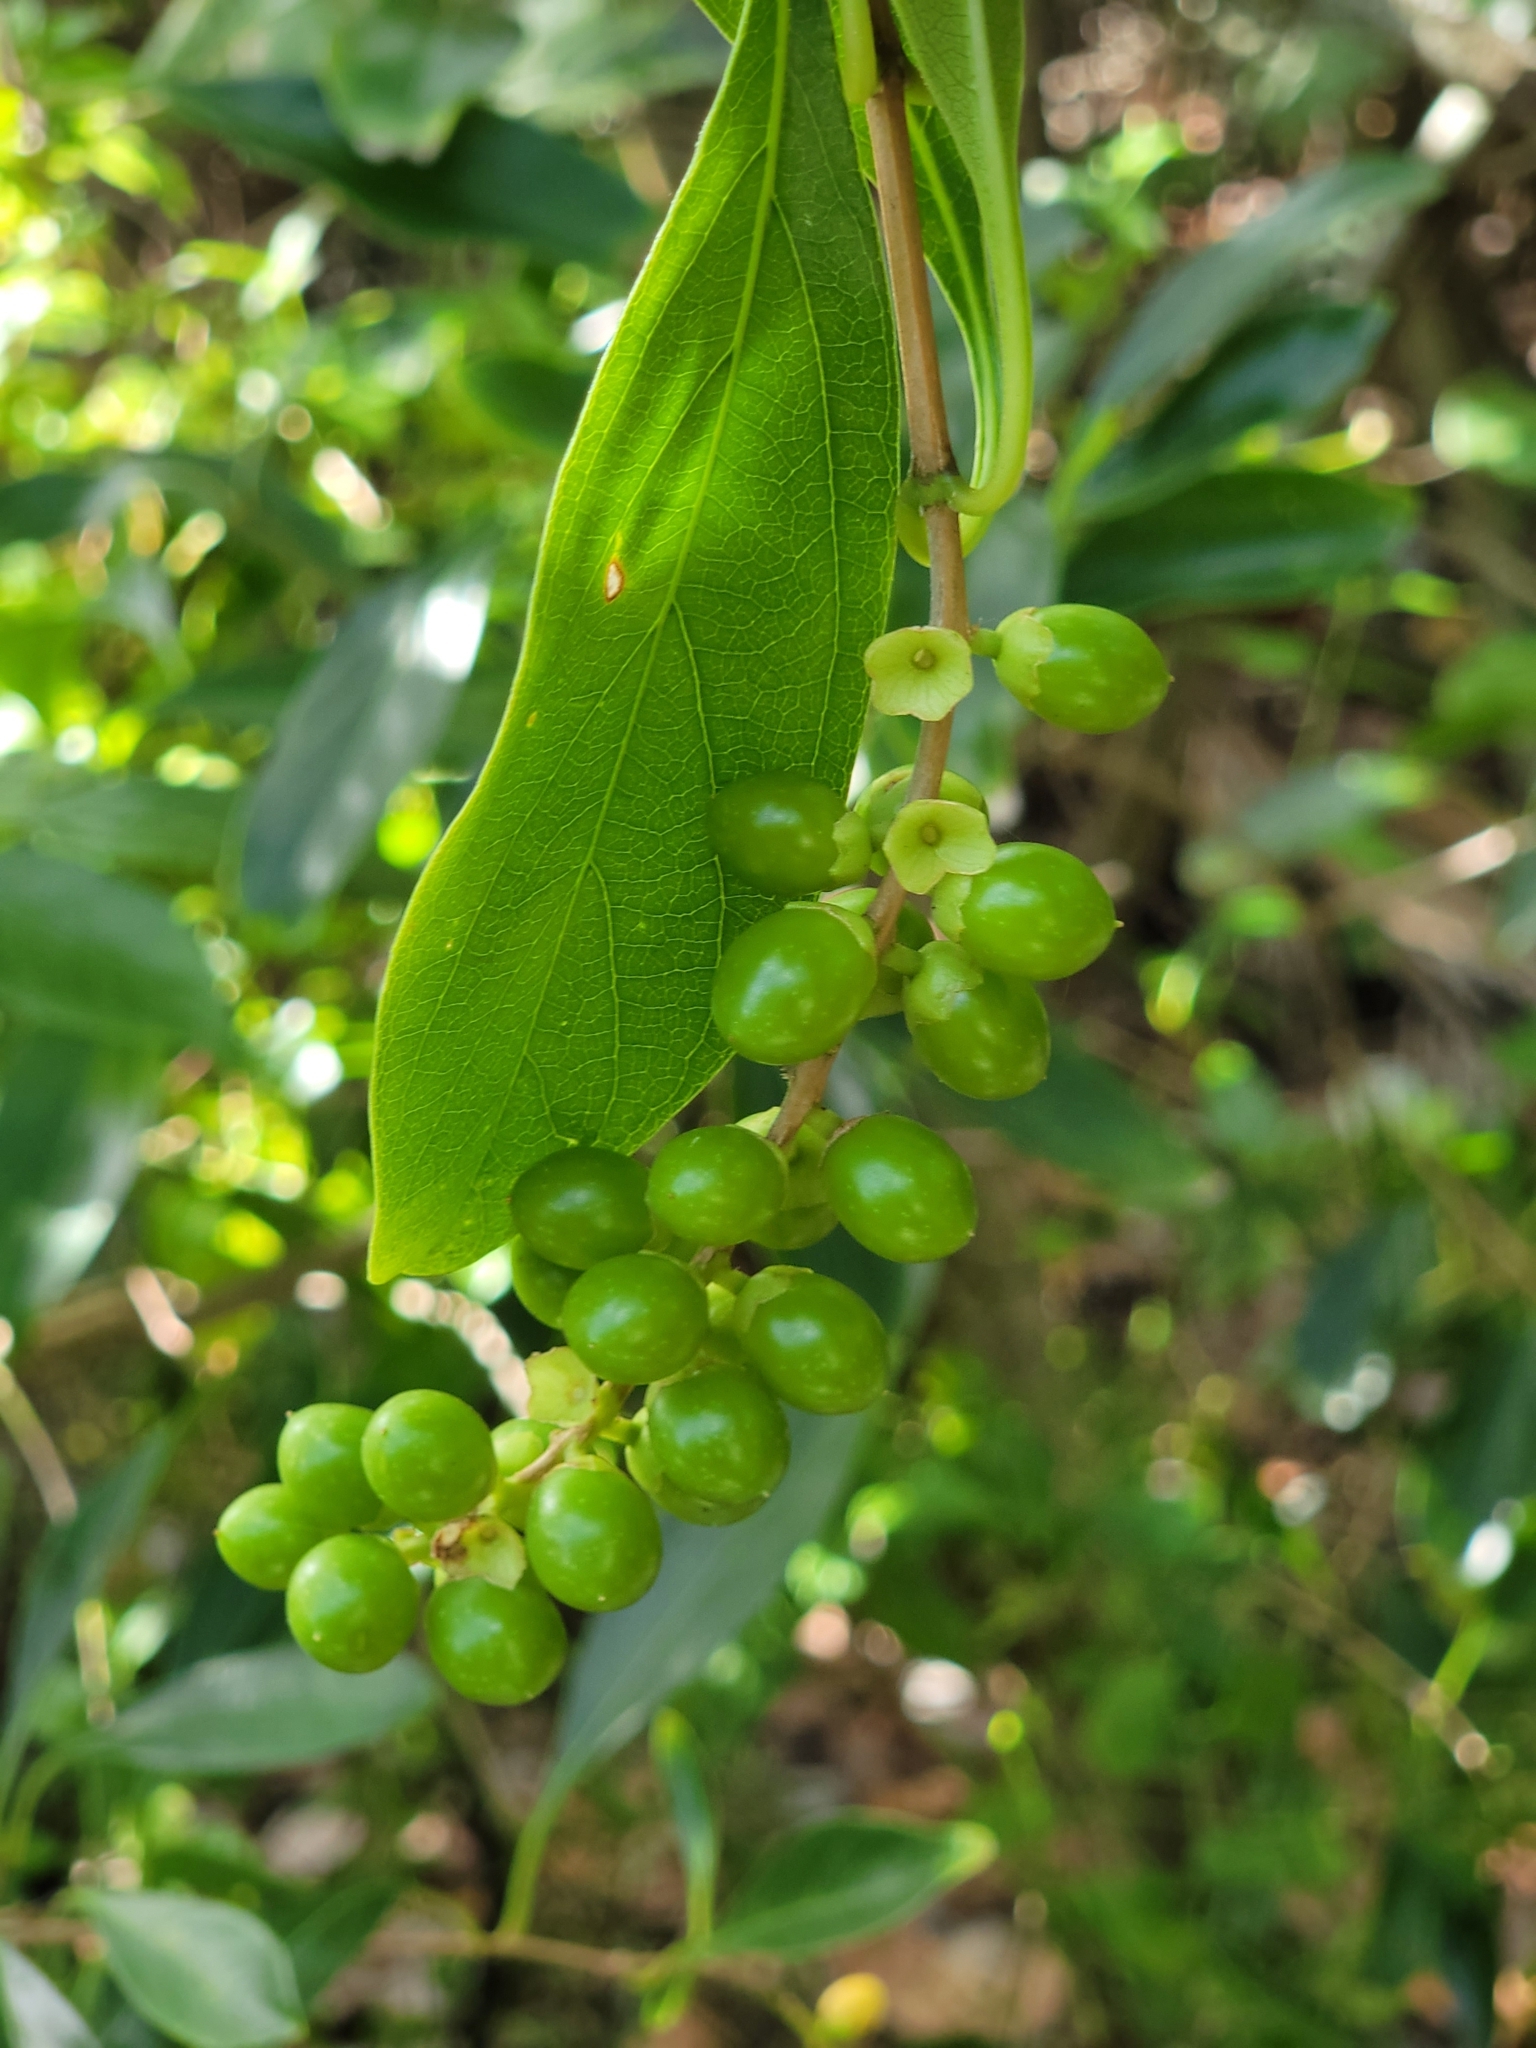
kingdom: Plantae
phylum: Tracheophyta
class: Magnoliopsida
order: Lamiales
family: Verbenaceae
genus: Citharexylum
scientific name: Citharexylum spinosum
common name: Fiddlewood
